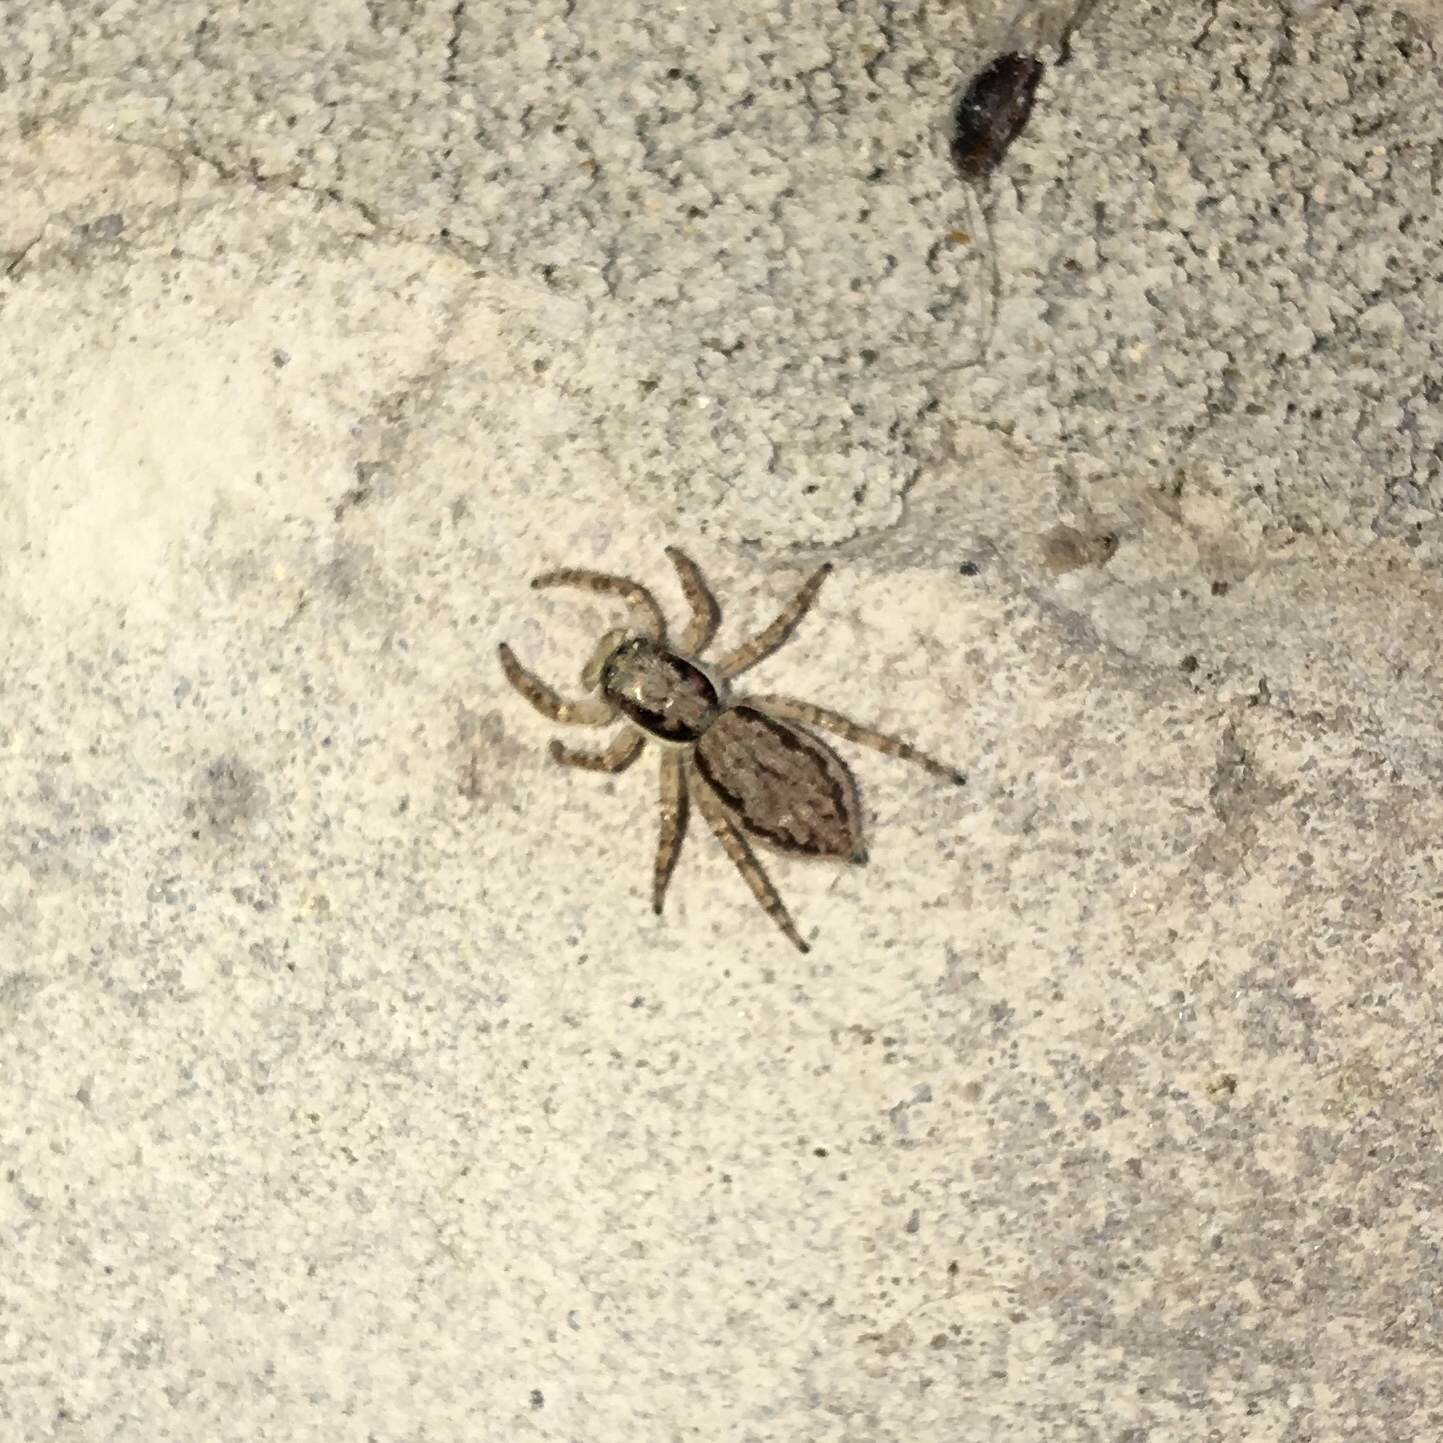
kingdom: Animalia
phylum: Arthropoda
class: Arachnida
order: Araneae
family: Salticidae
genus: Menemerus
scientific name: Menemerus bivittatus
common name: Gray wall jumper
